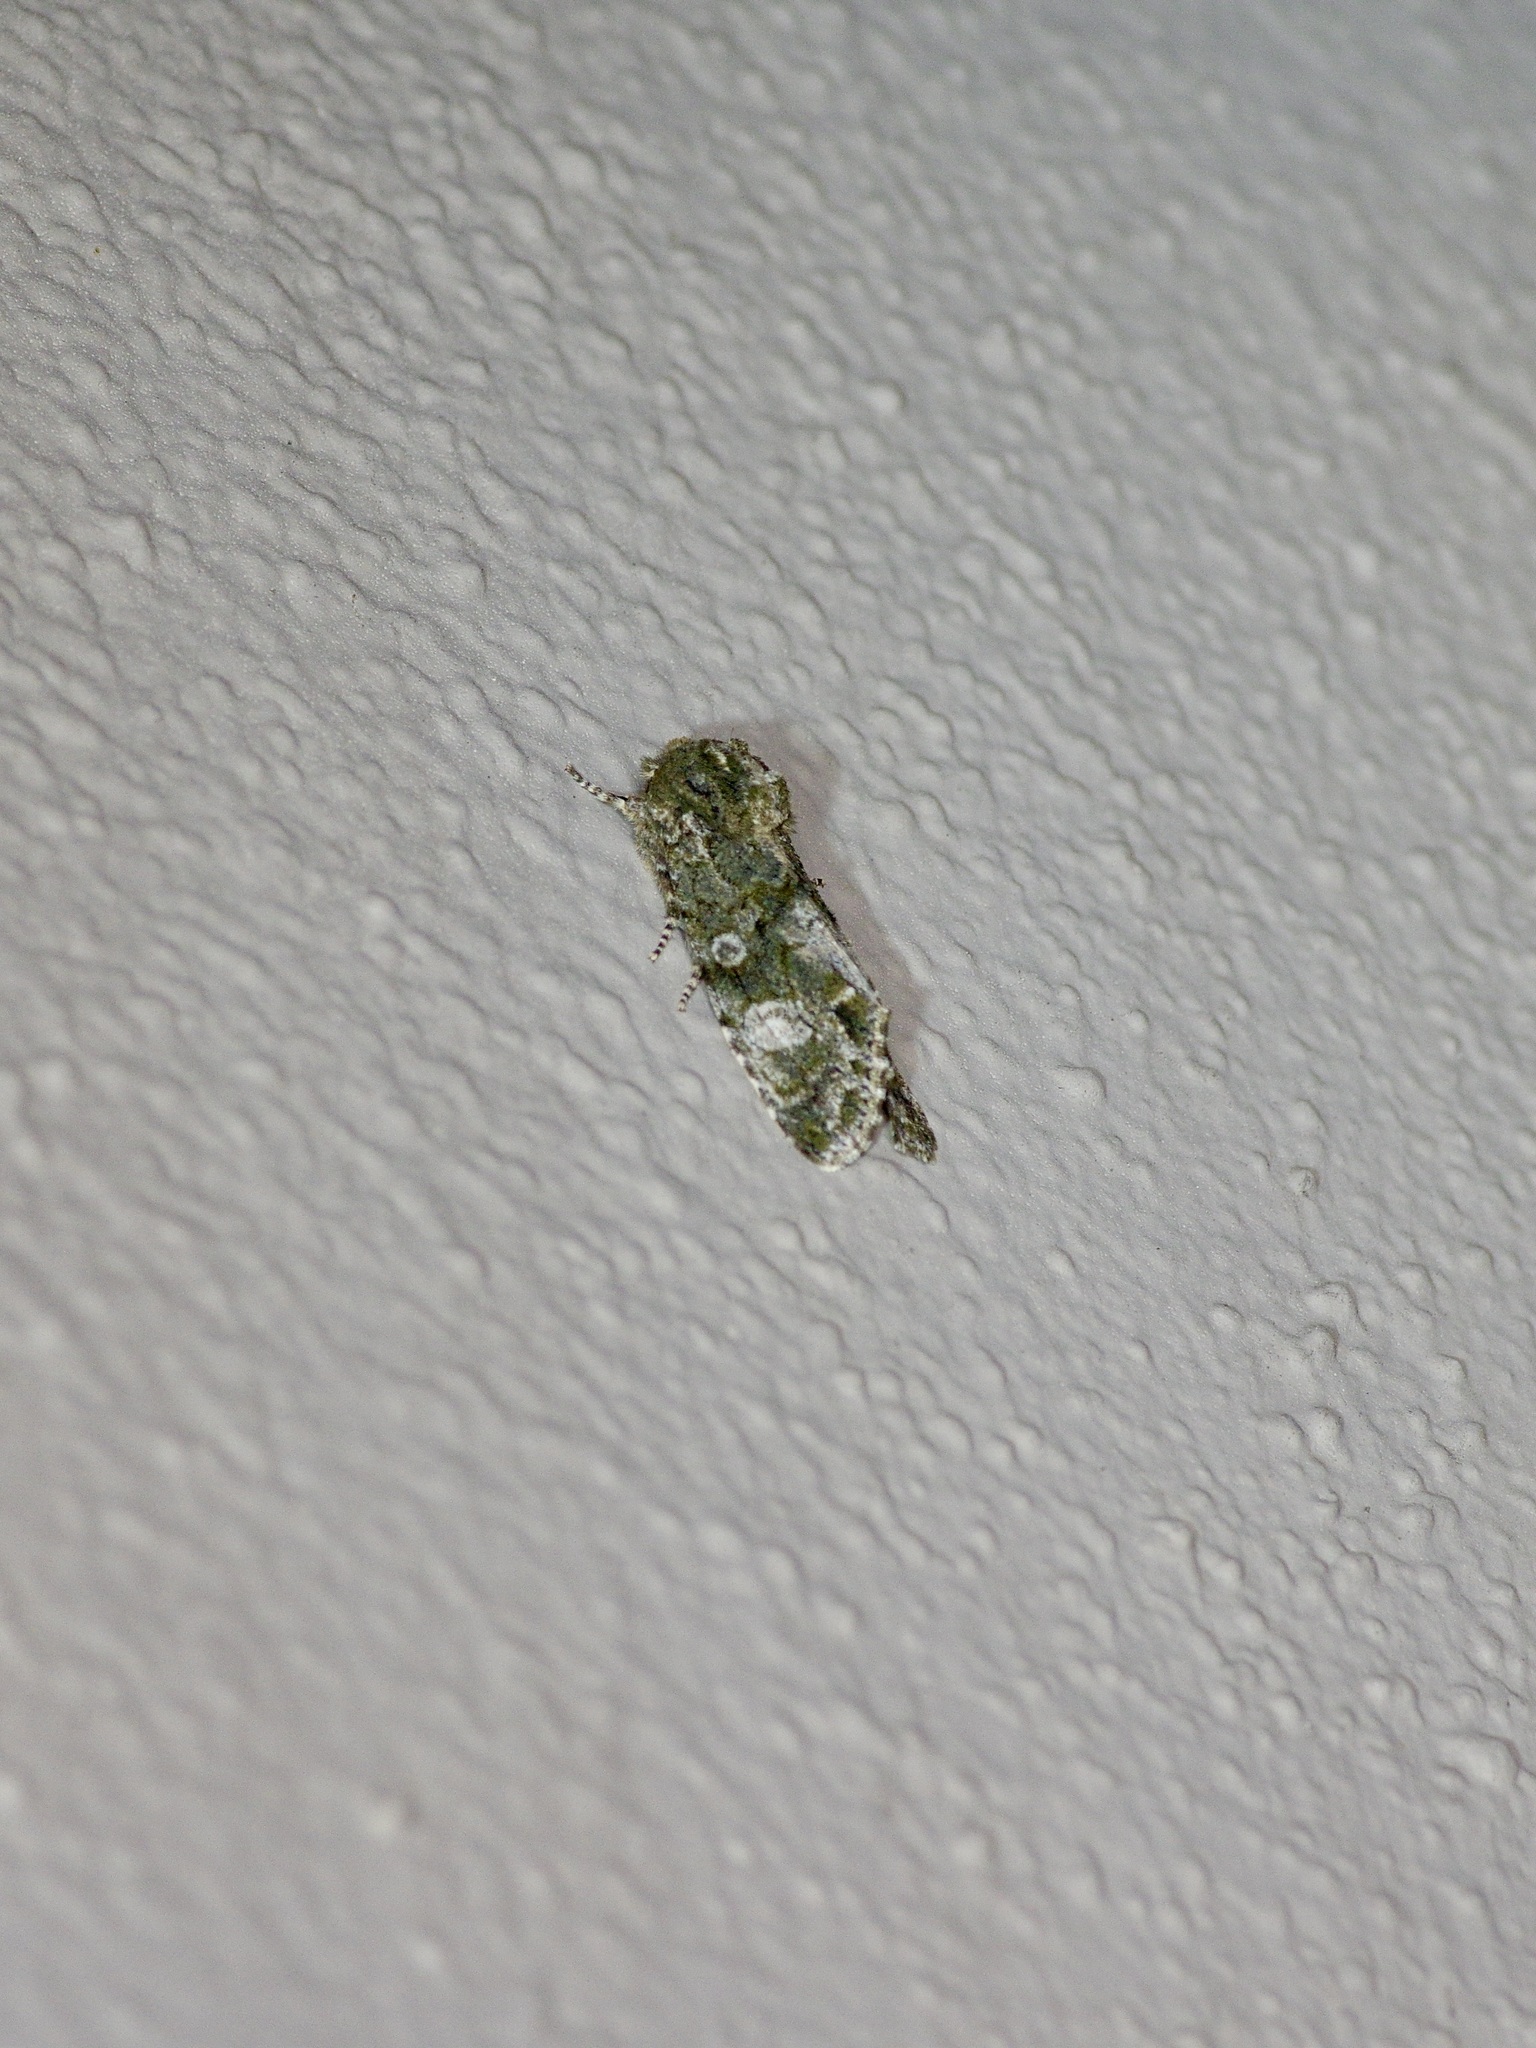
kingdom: Animalia
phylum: Arthropoda
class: Insecta
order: Lepidoptera
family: Noctuidae
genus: Psaphida
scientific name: Psaphida grotei
